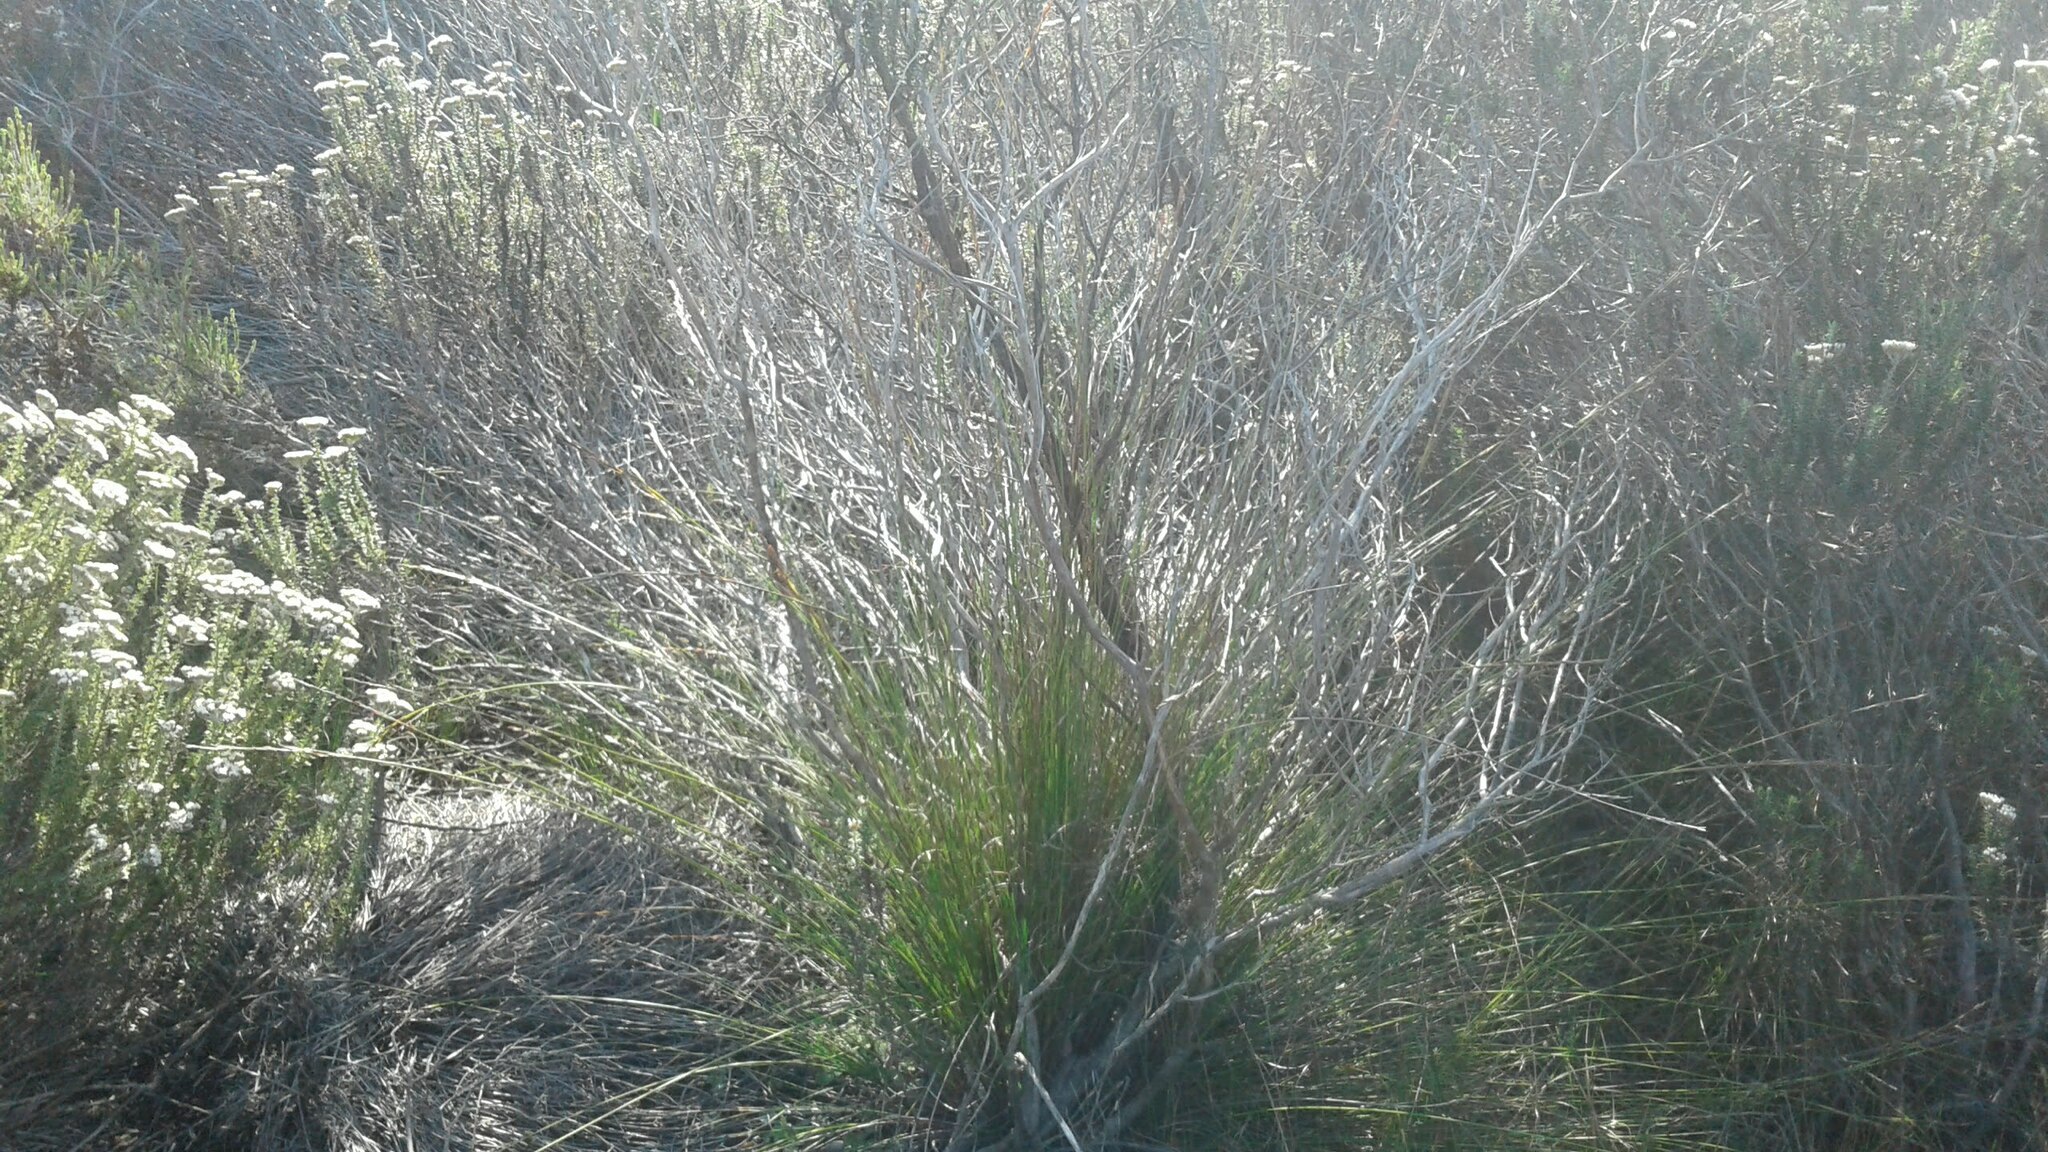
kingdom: Plantae
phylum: Tracheophyta
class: Liliopsida
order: Poales
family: Cyperaceae
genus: Schoenus
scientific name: Schoenus inconspicuus
